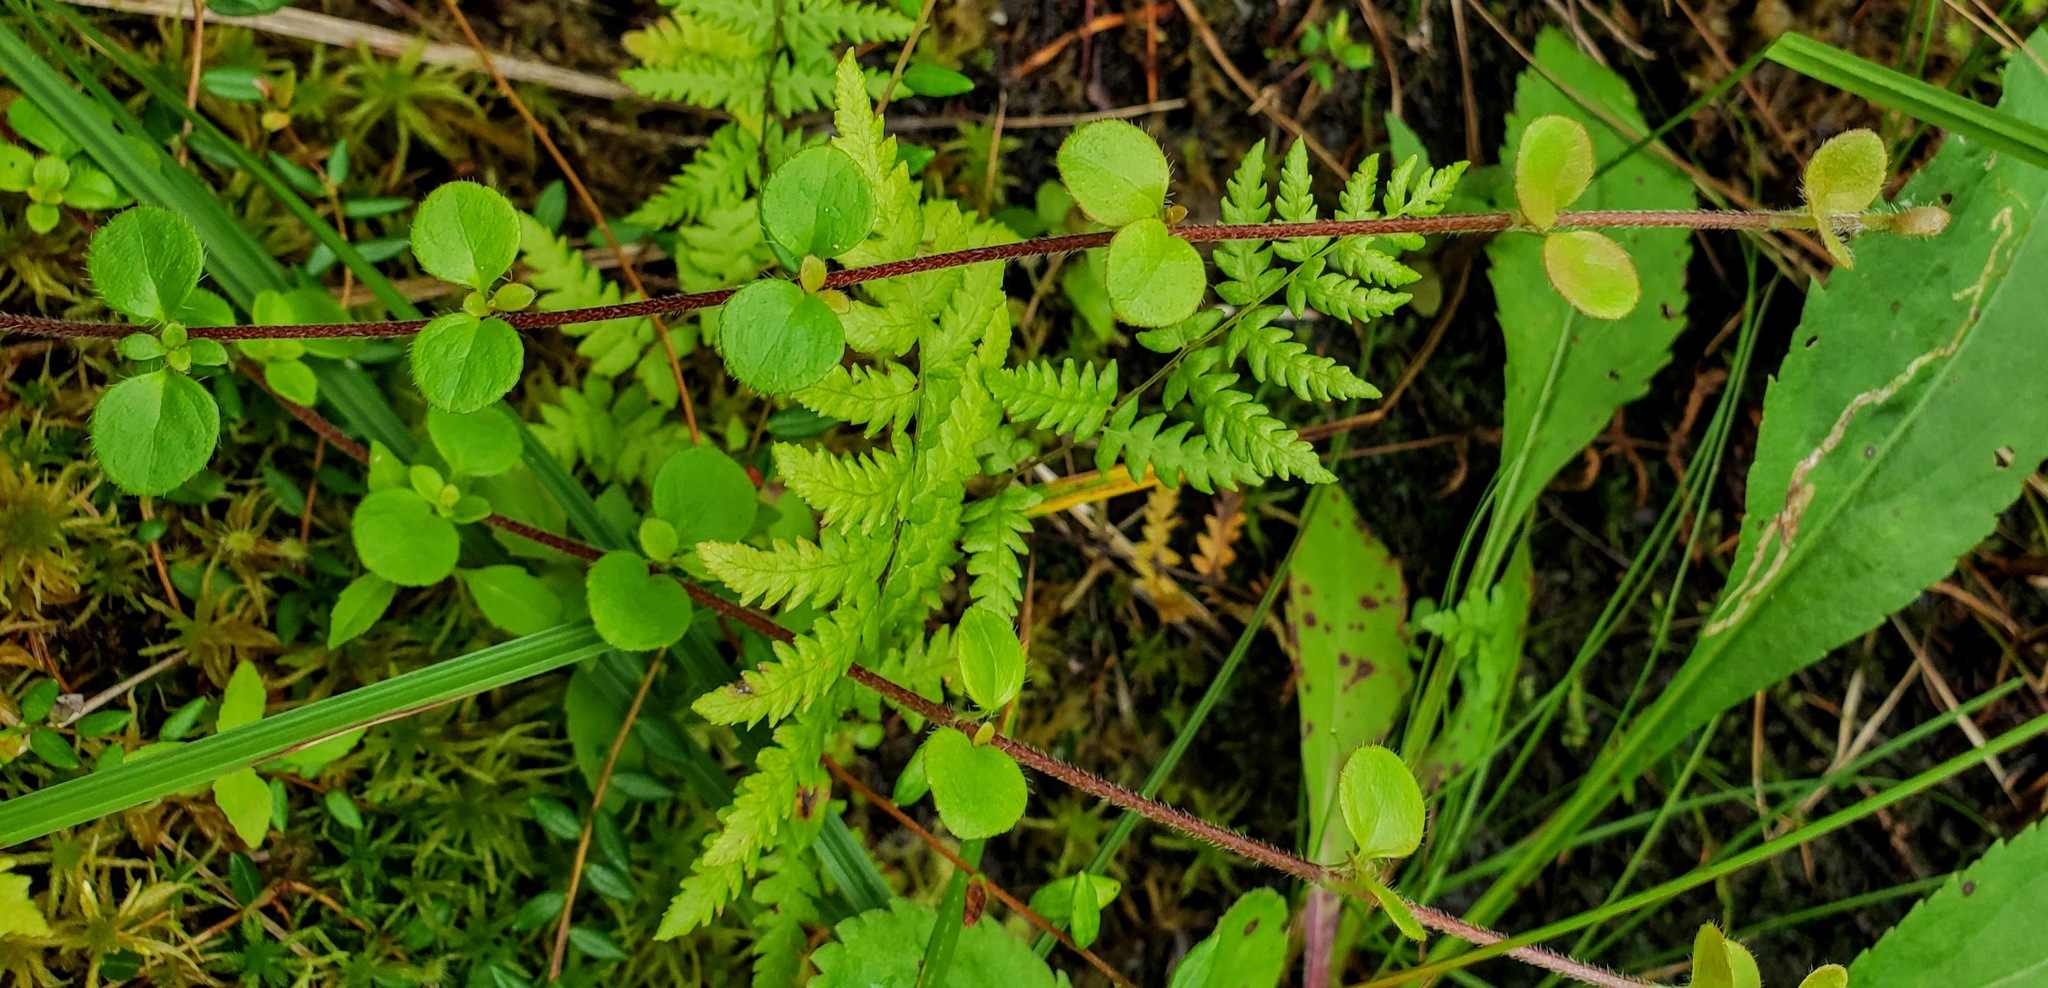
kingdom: Plantae
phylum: Tracheophyta
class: Magnoliopsida
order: Dipsacales
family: Caprifoliaceae
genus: Linnaea
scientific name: Linnaea borealis
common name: Twinflower
